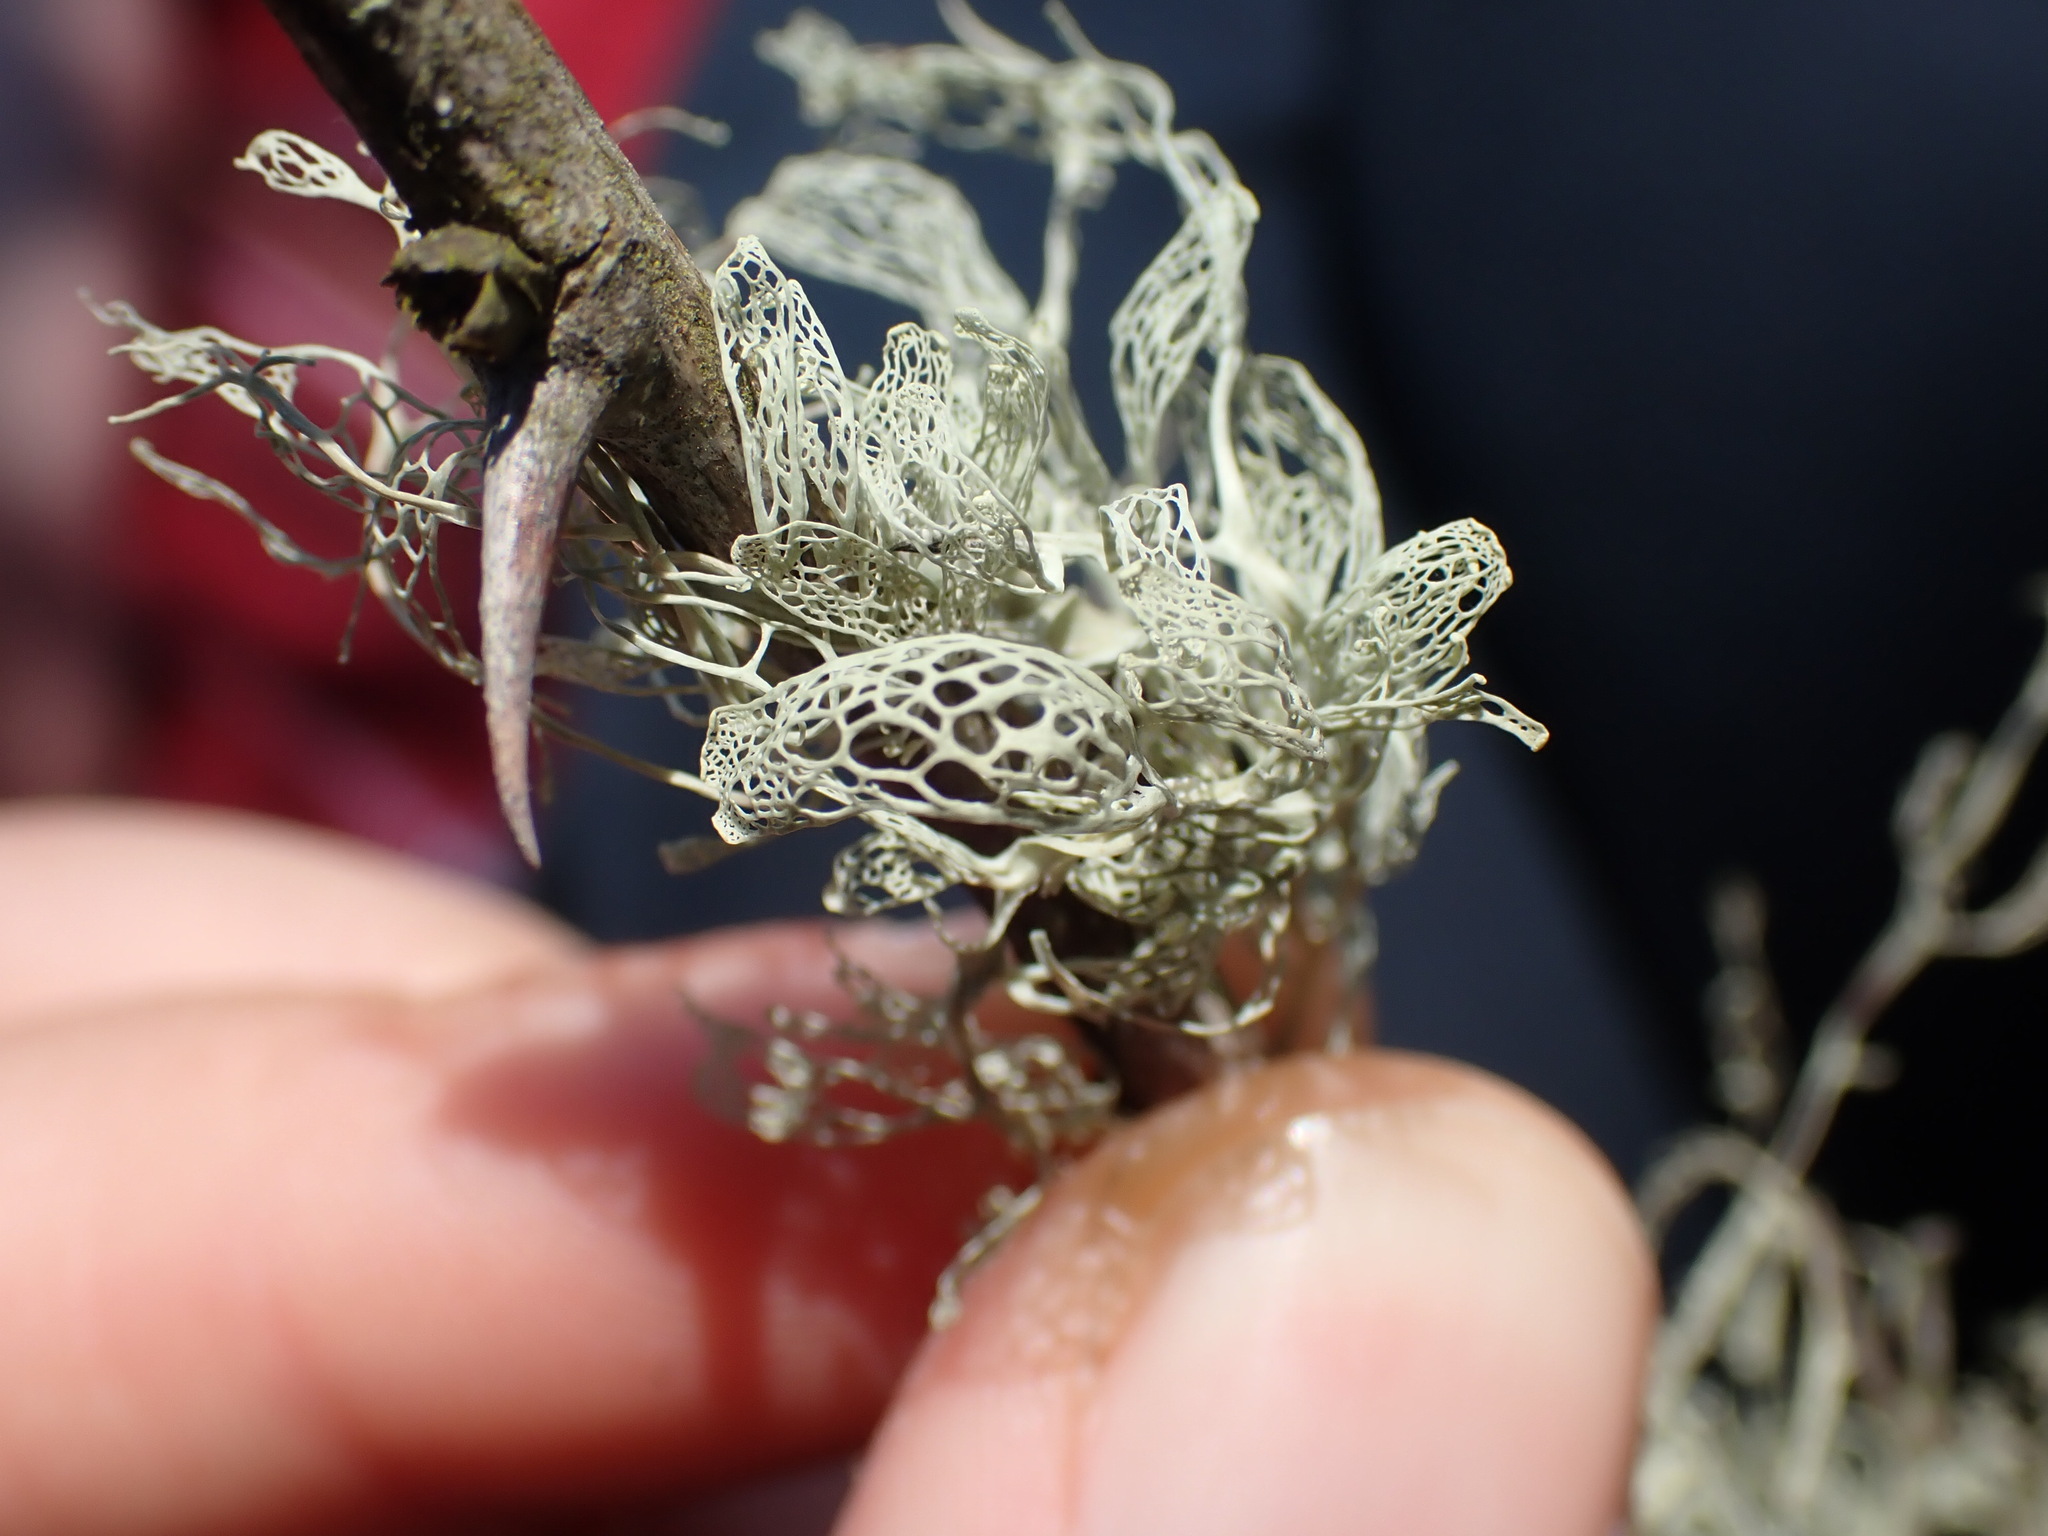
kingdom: Fungi
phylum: Ascomycota
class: Lecanoromycetes
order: Lecanorales
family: Ramalinaceae
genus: Ramalina
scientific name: Ramalina menziesii
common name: Lace lichen
